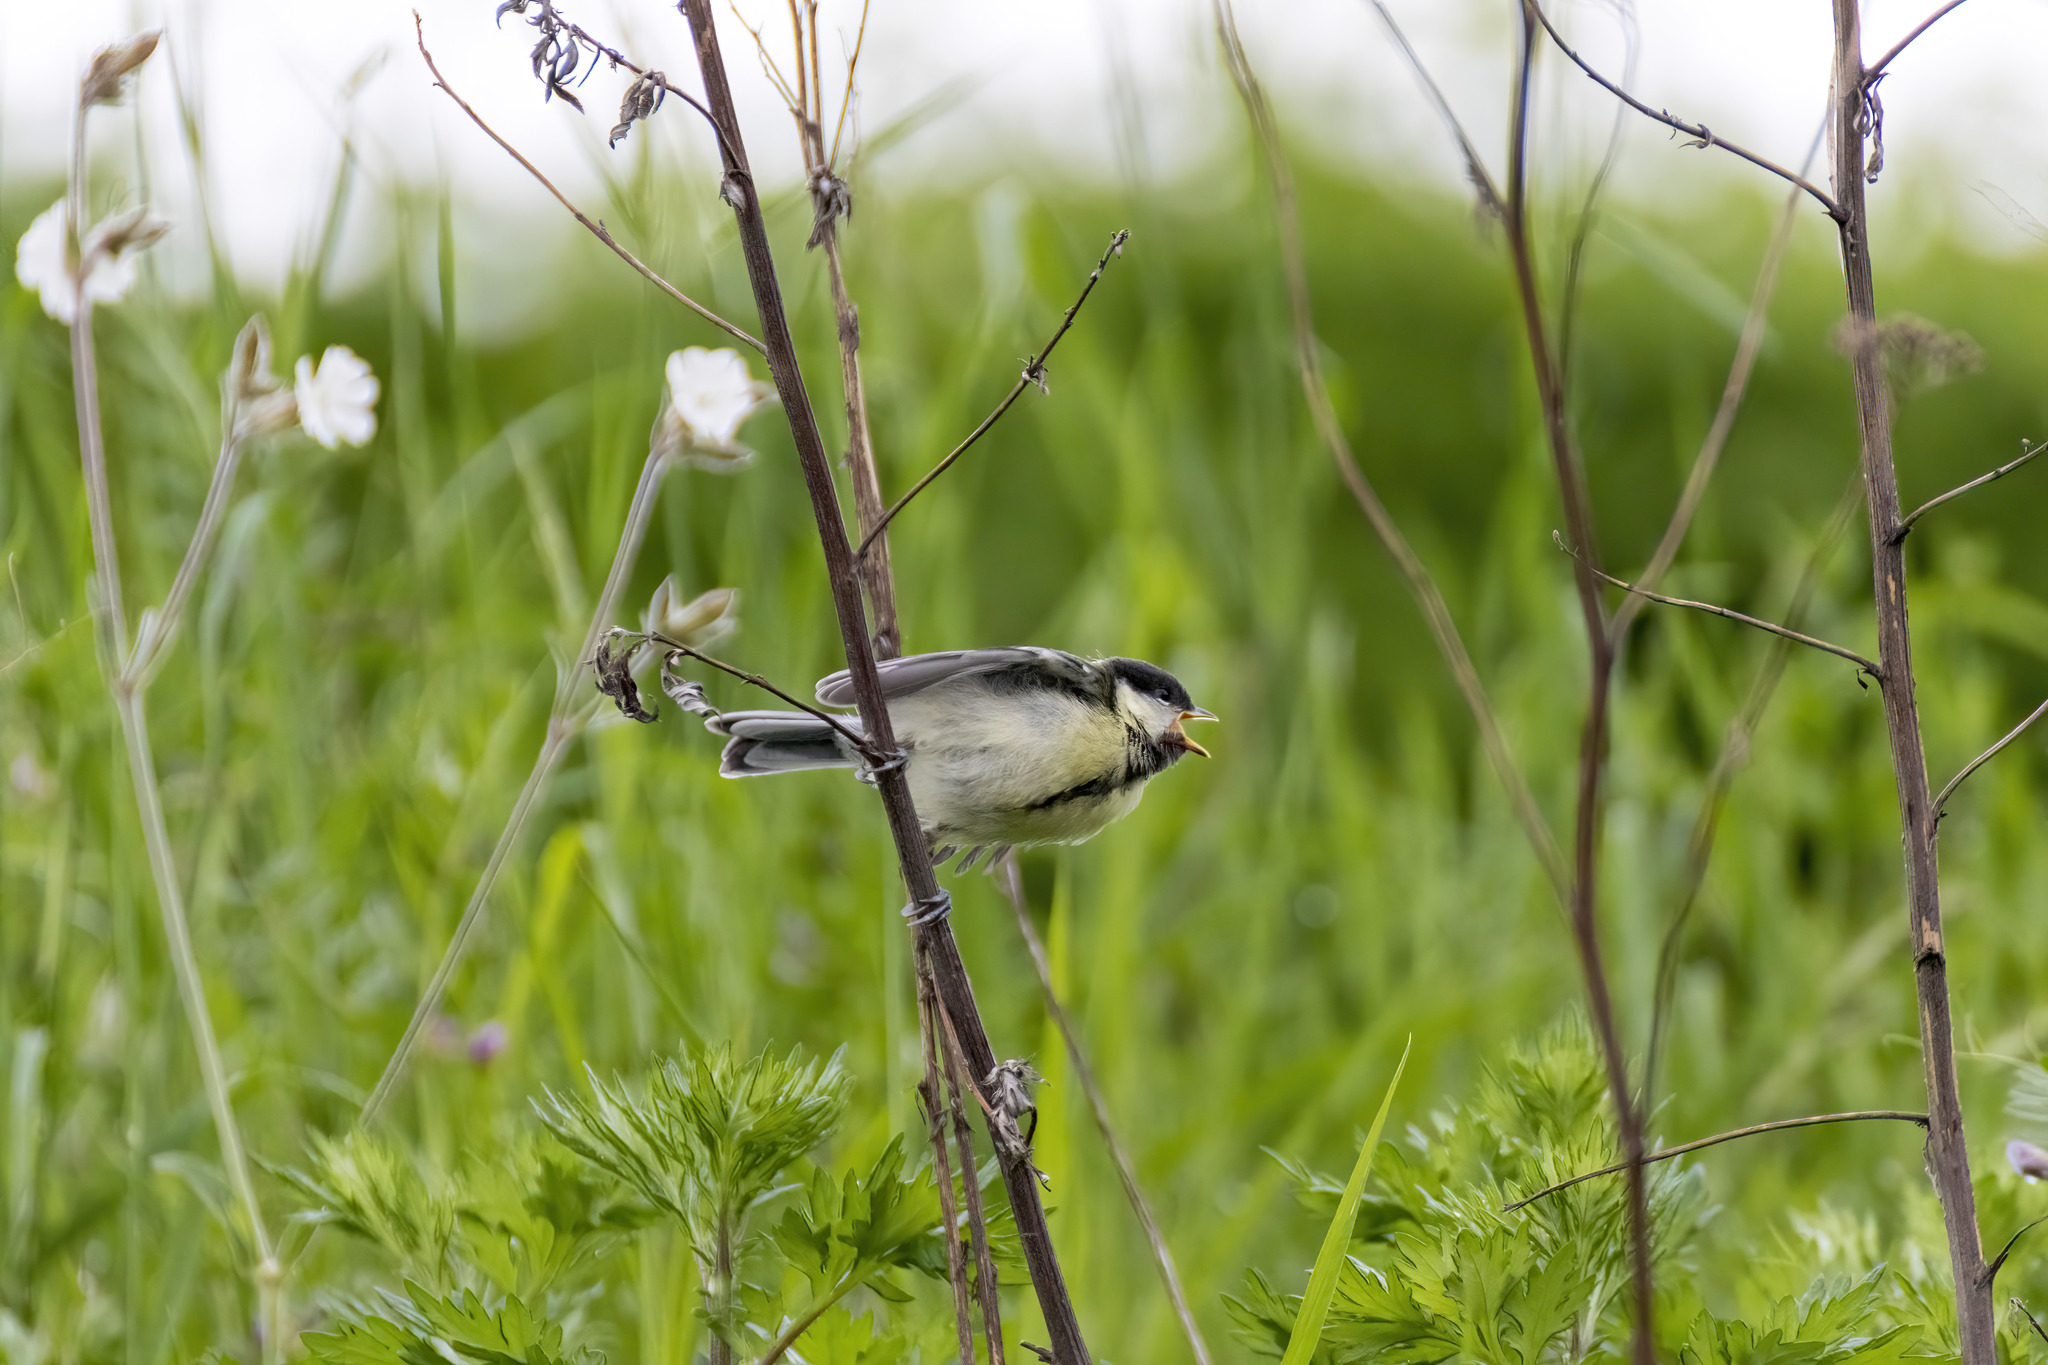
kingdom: Animalia
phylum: Chordata
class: Aves
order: Passeriformes
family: Paridae
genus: Parus
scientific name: Parus major
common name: Great tit
